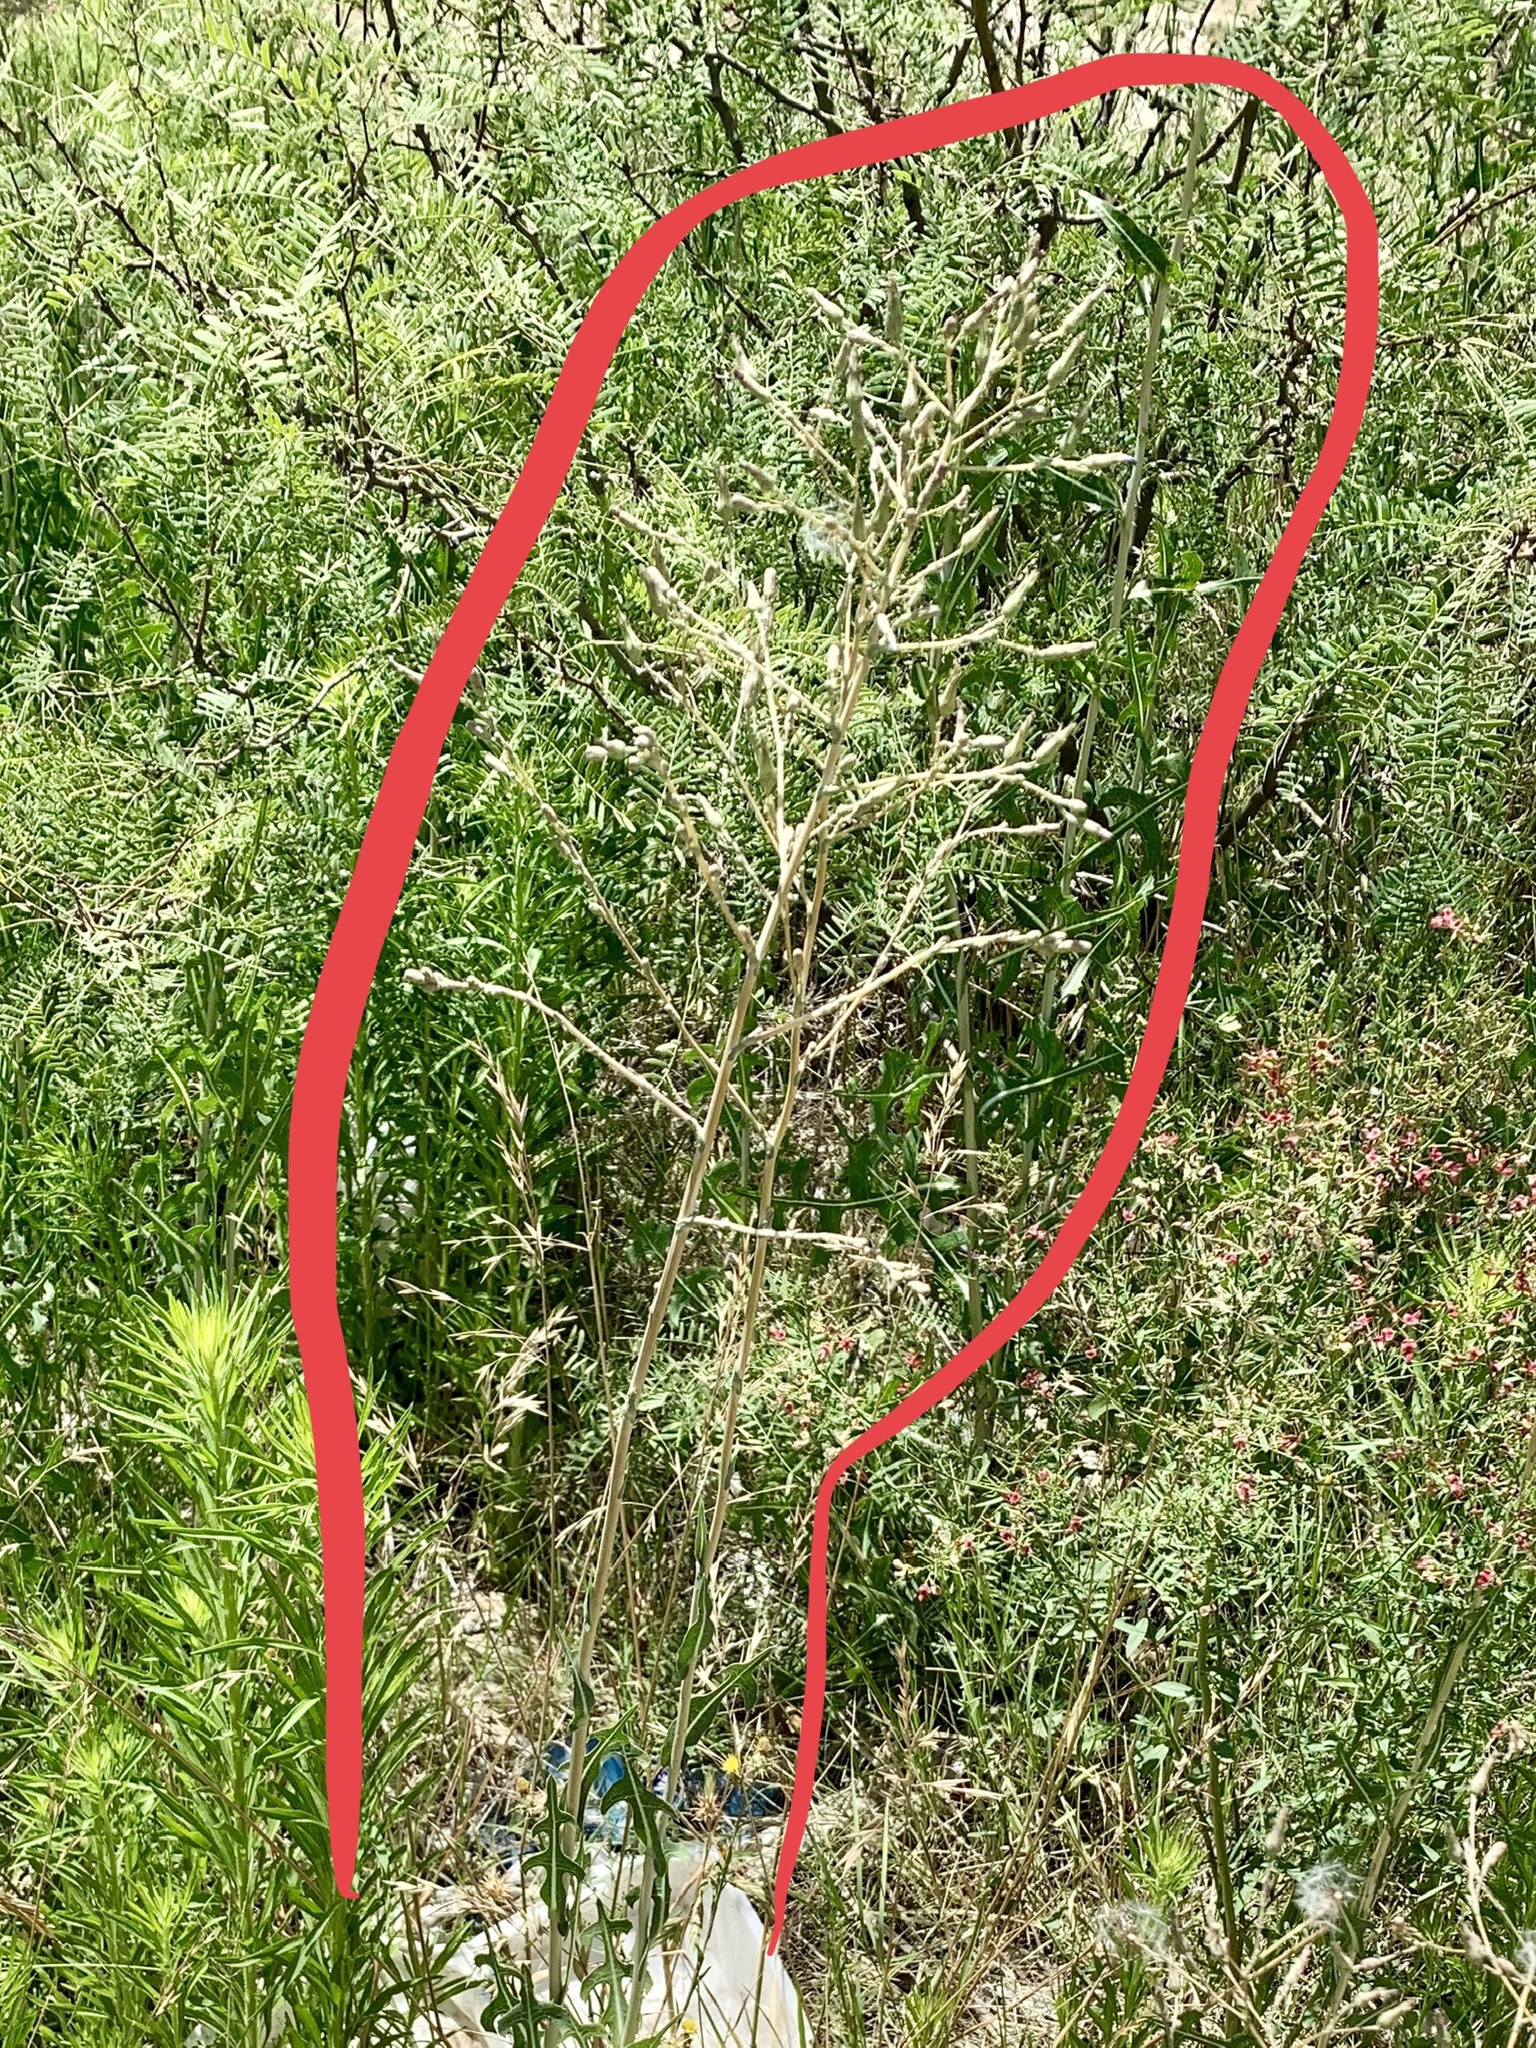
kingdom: Plantae
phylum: Tracheophyta
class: Magnoliopsida
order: Asterales
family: Asteraceae
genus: Lactuca
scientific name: Lactuca serriola
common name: Prickly lettuce
